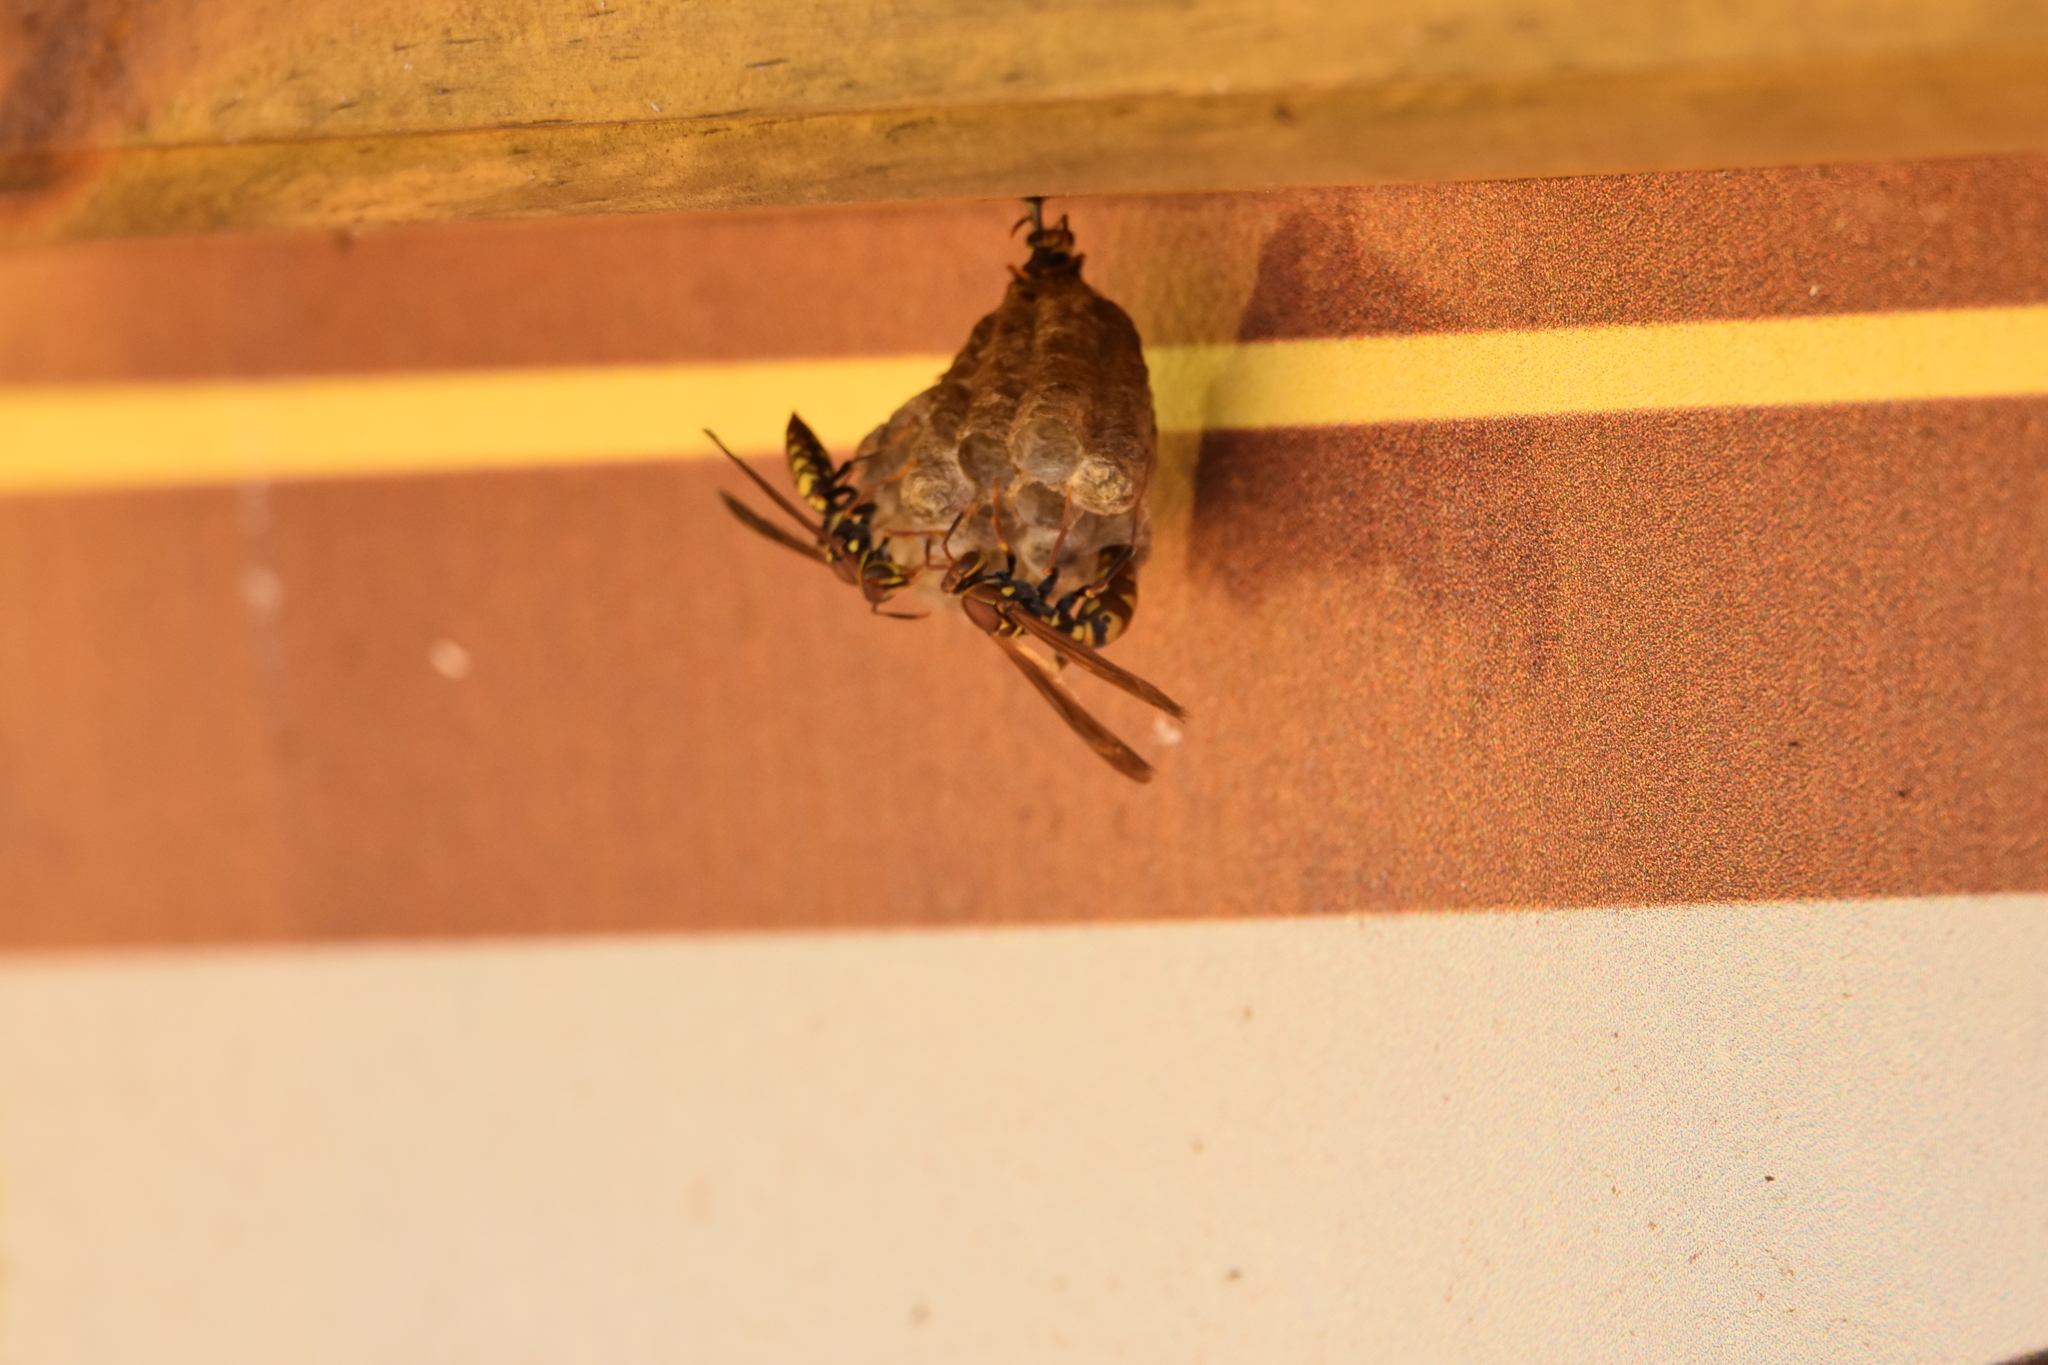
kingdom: Animalia
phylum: Arthropoda
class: Insecta
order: Hymenoptera
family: Eumenidae
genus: Polistes
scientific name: Polistes versicolor
